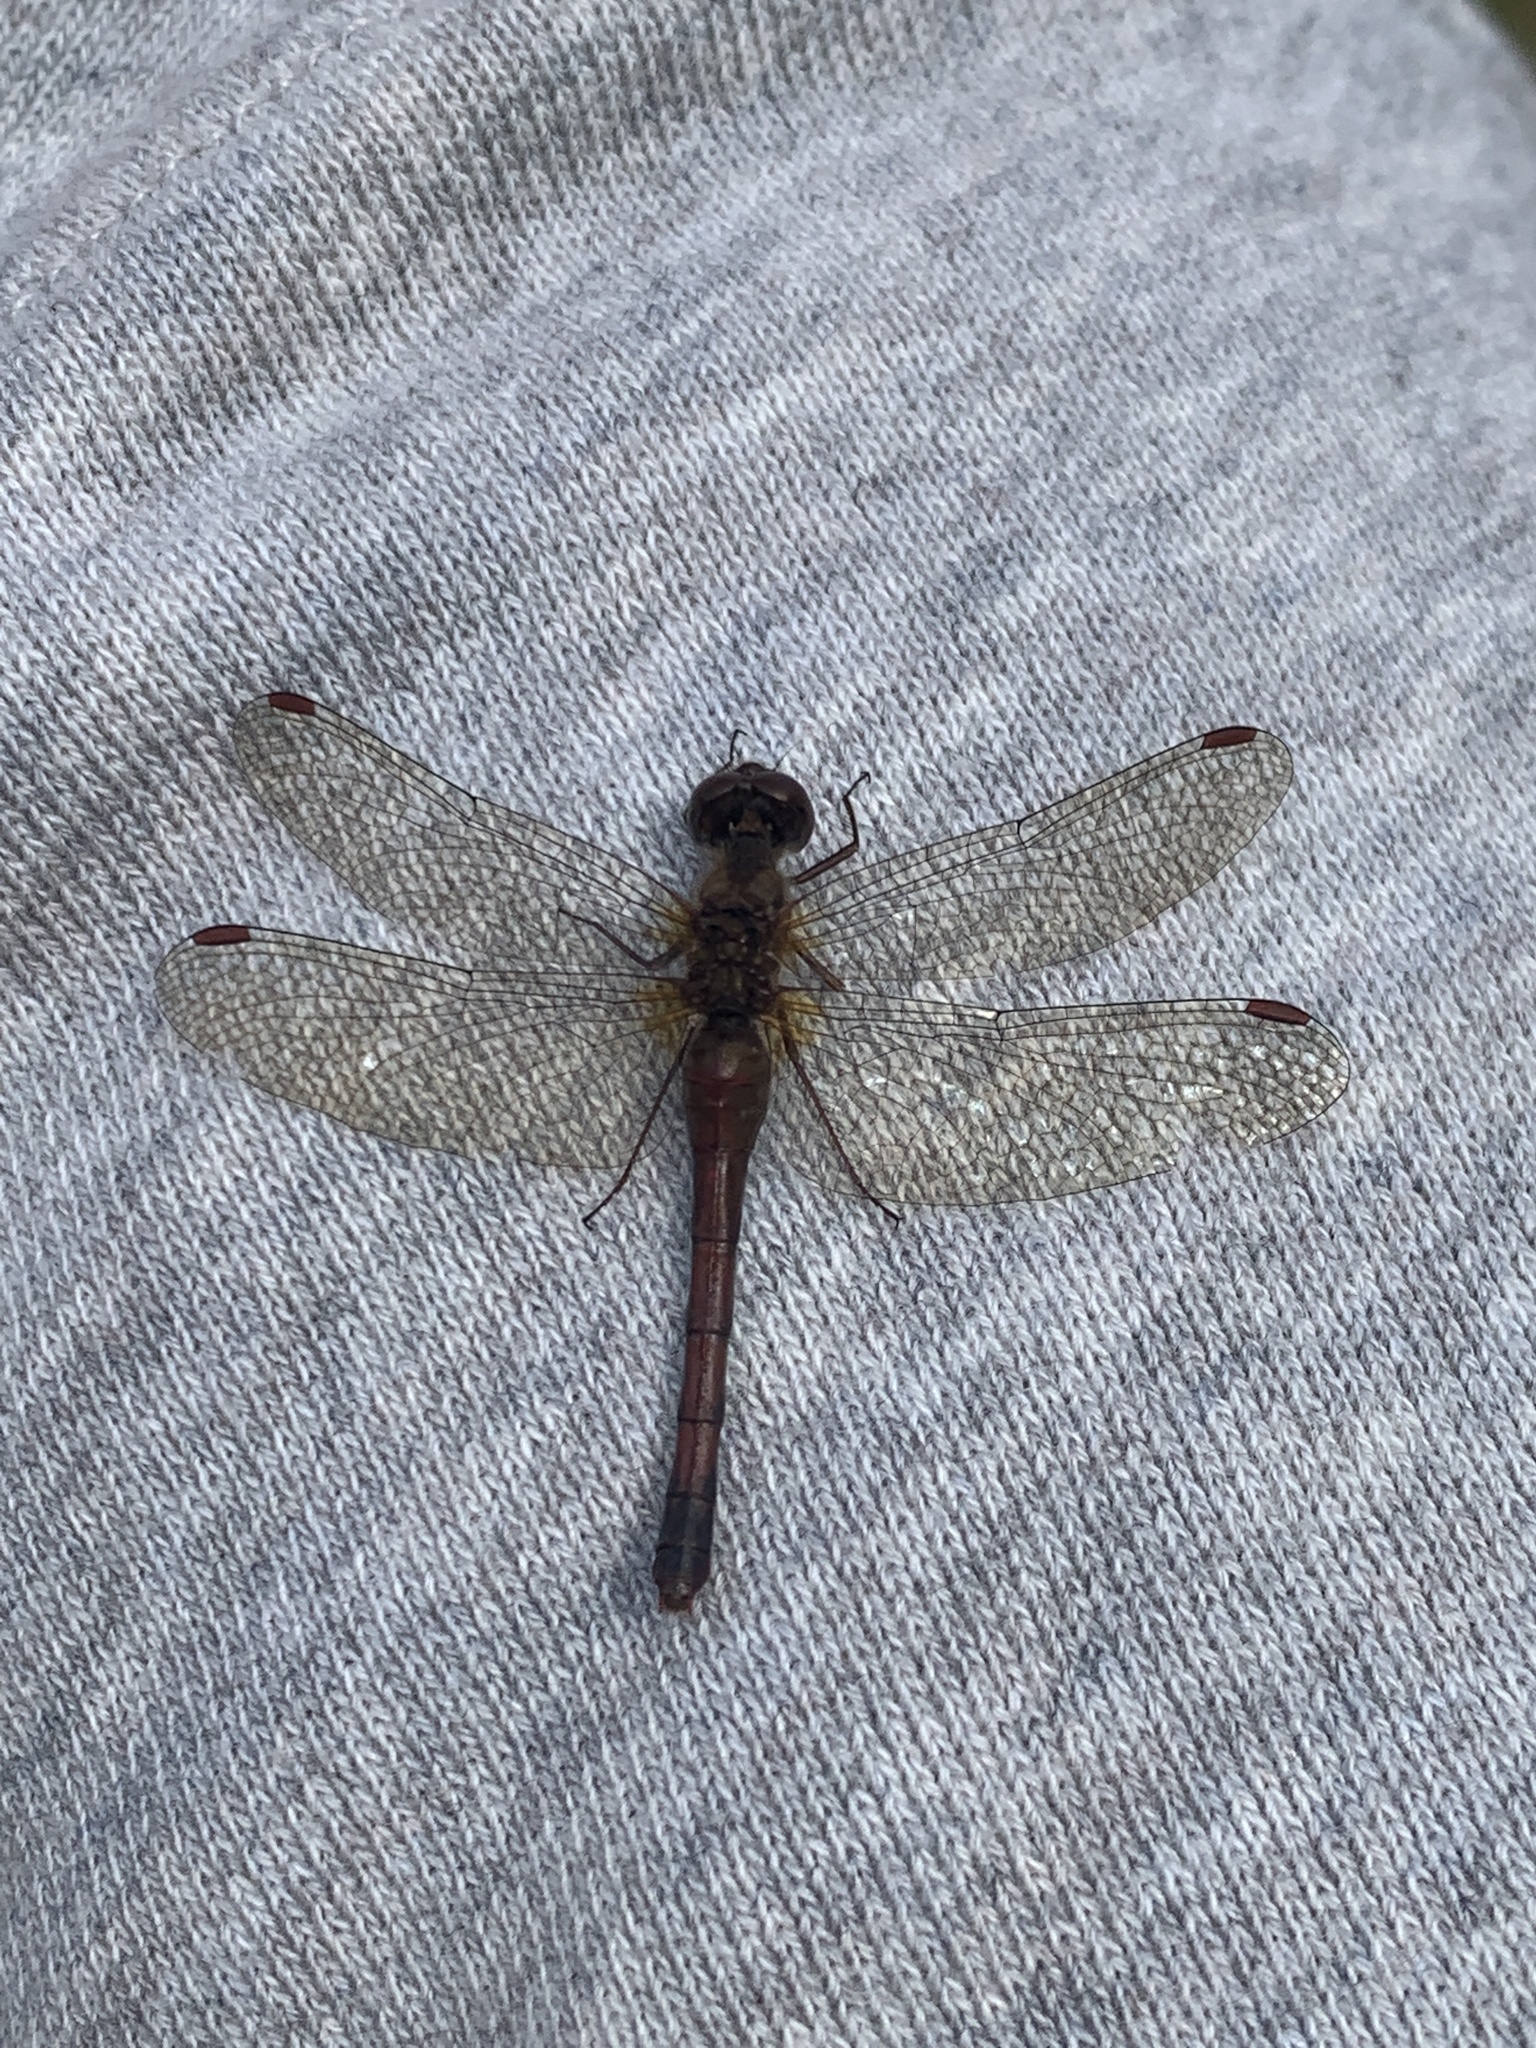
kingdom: Animalia
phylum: Arthropoda
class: Insecta
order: Odonata
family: Libellulidae
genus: Sympetrum
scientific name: Sympetrum vicinum
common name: Autumn meadowhawk
